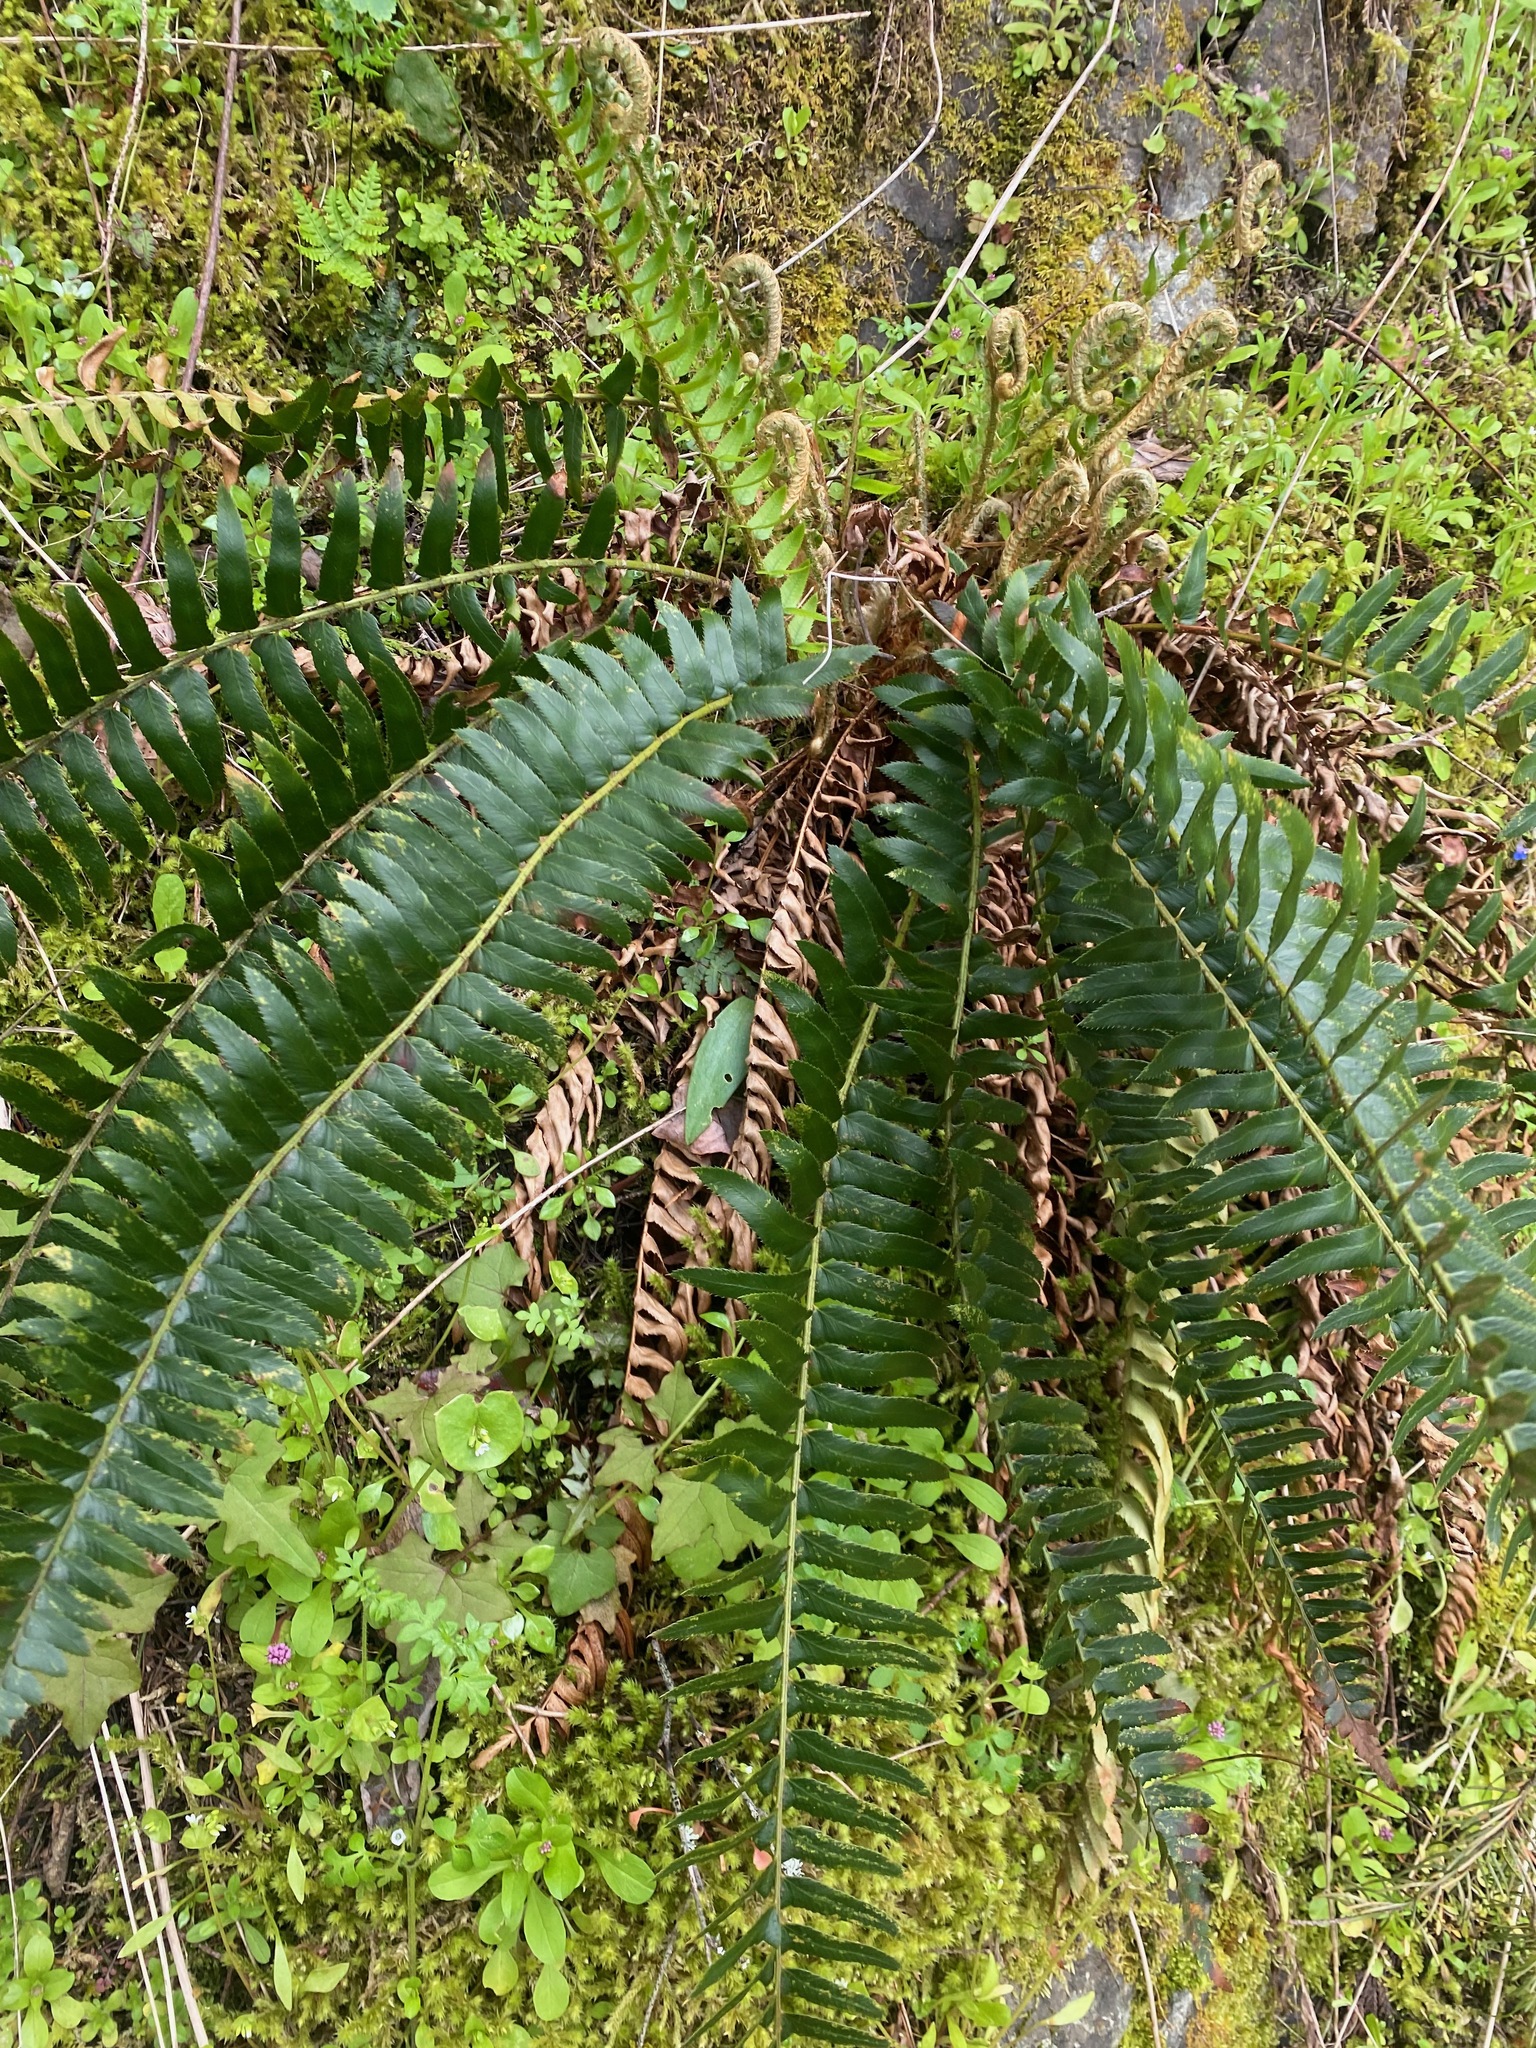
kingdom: Plantae
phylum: Tracheophyta
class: Polypodiopsida
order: Polypodiales
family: Dryopteridaceae
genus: Polystichum
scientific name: Polystichum munitum
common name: Western sword-fern
